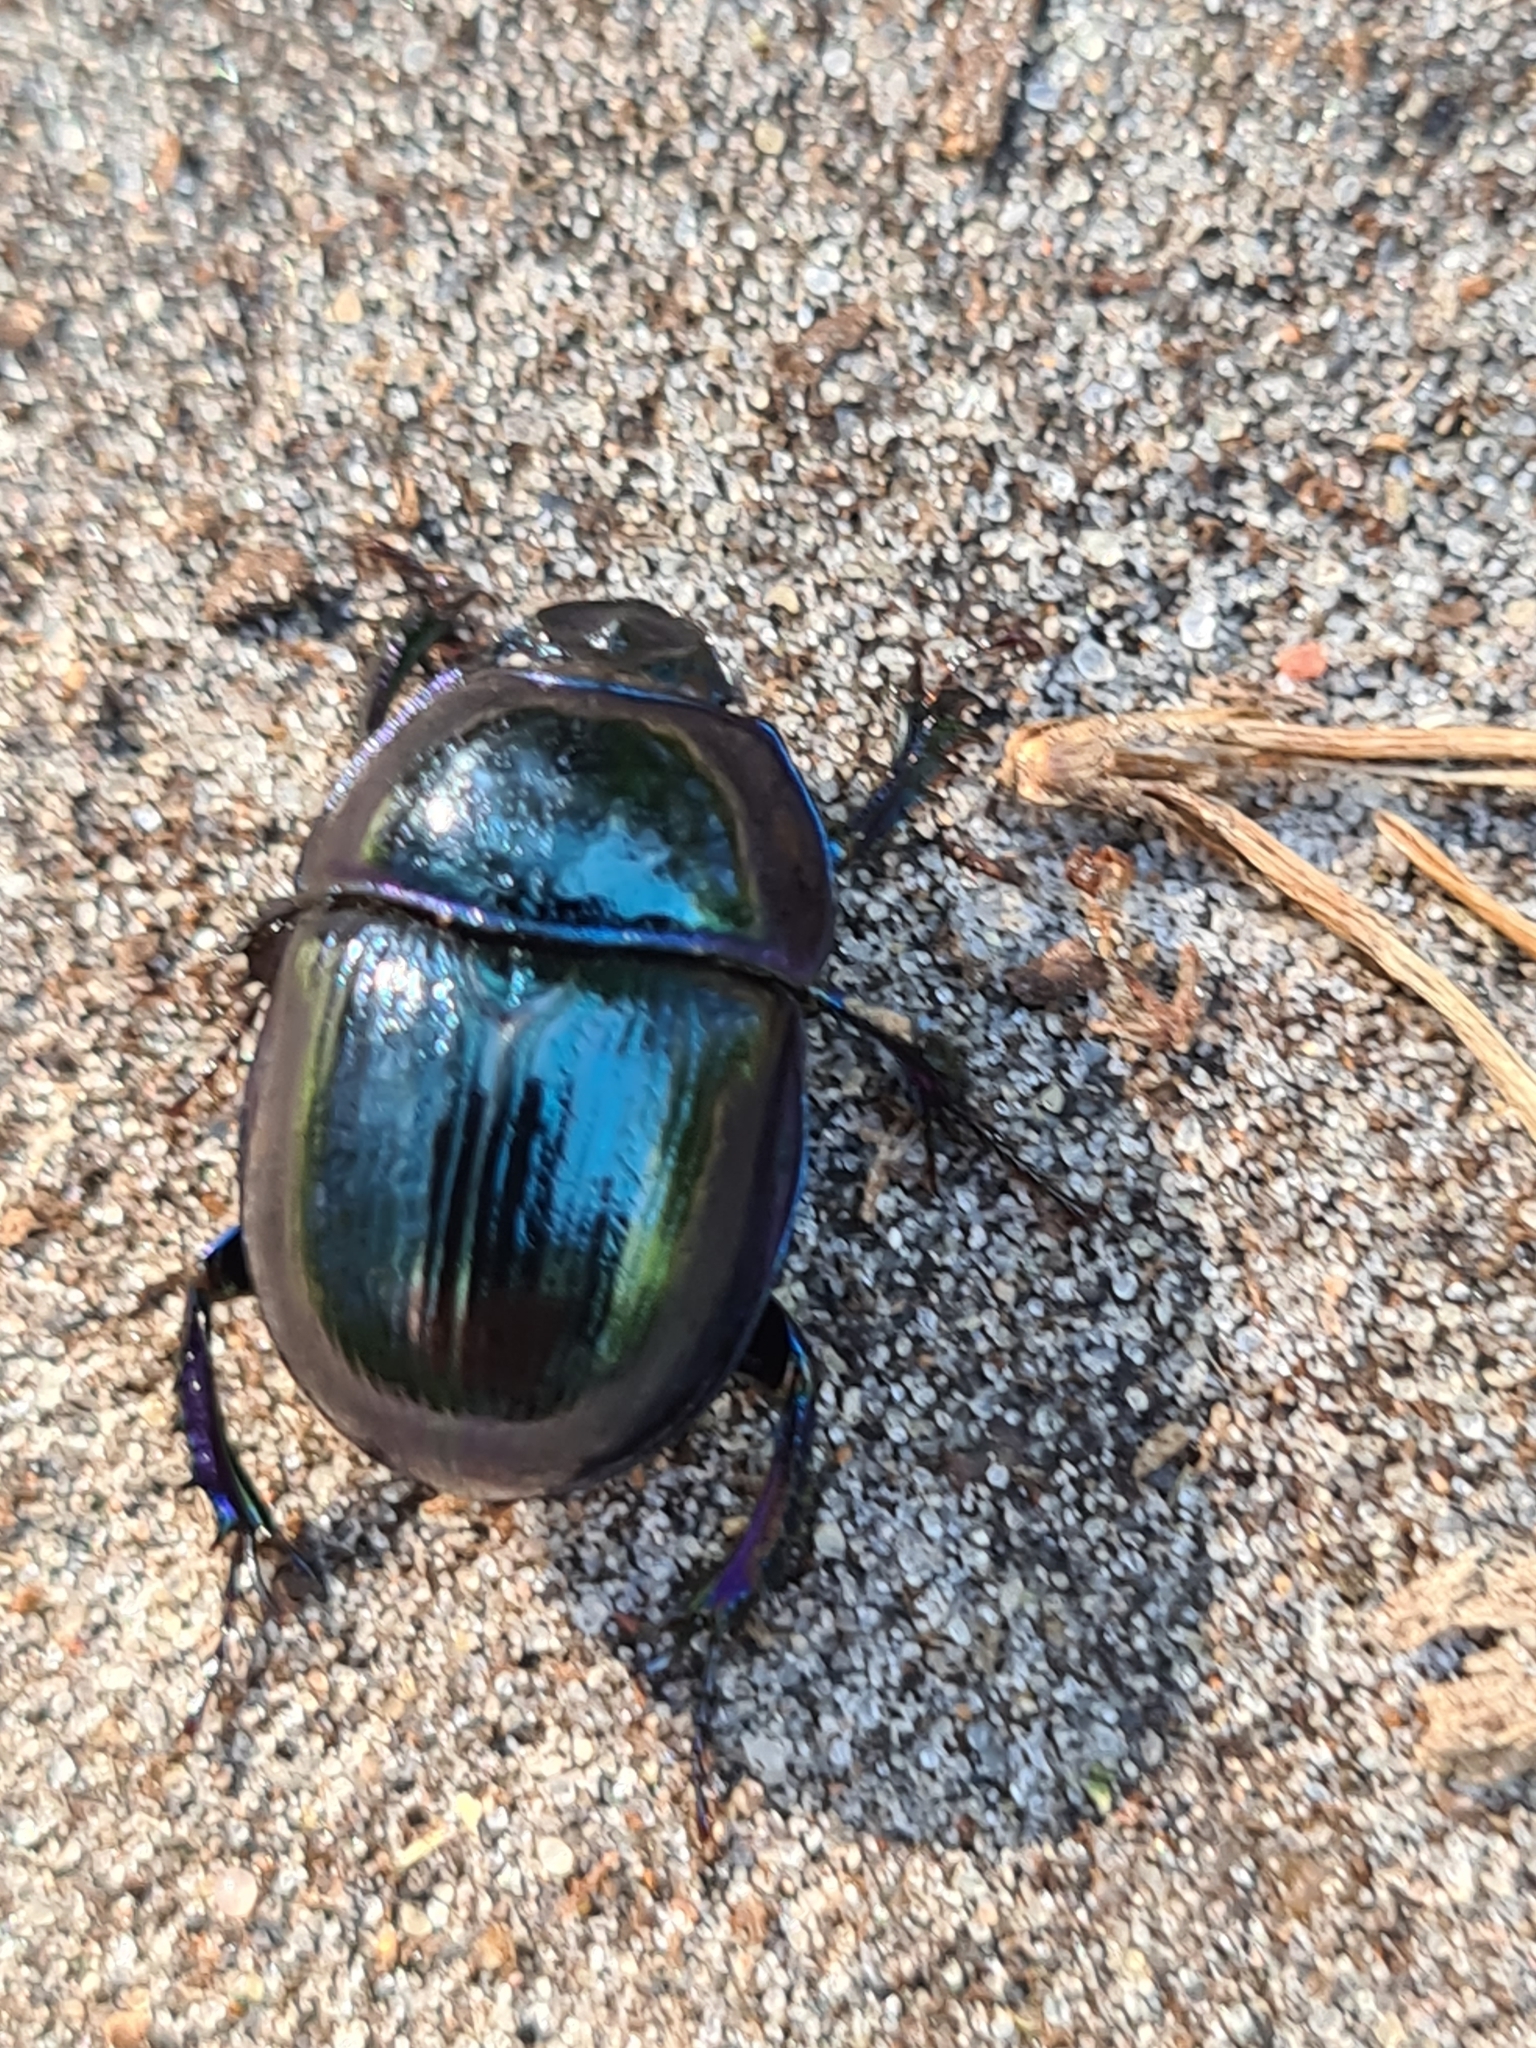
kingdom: Animalia
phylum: Arthropoda
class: Insecta
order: Coleoptera
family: Geotrupidae
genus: Anoplotrupes
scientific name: Anoplotrupes stercorosus
